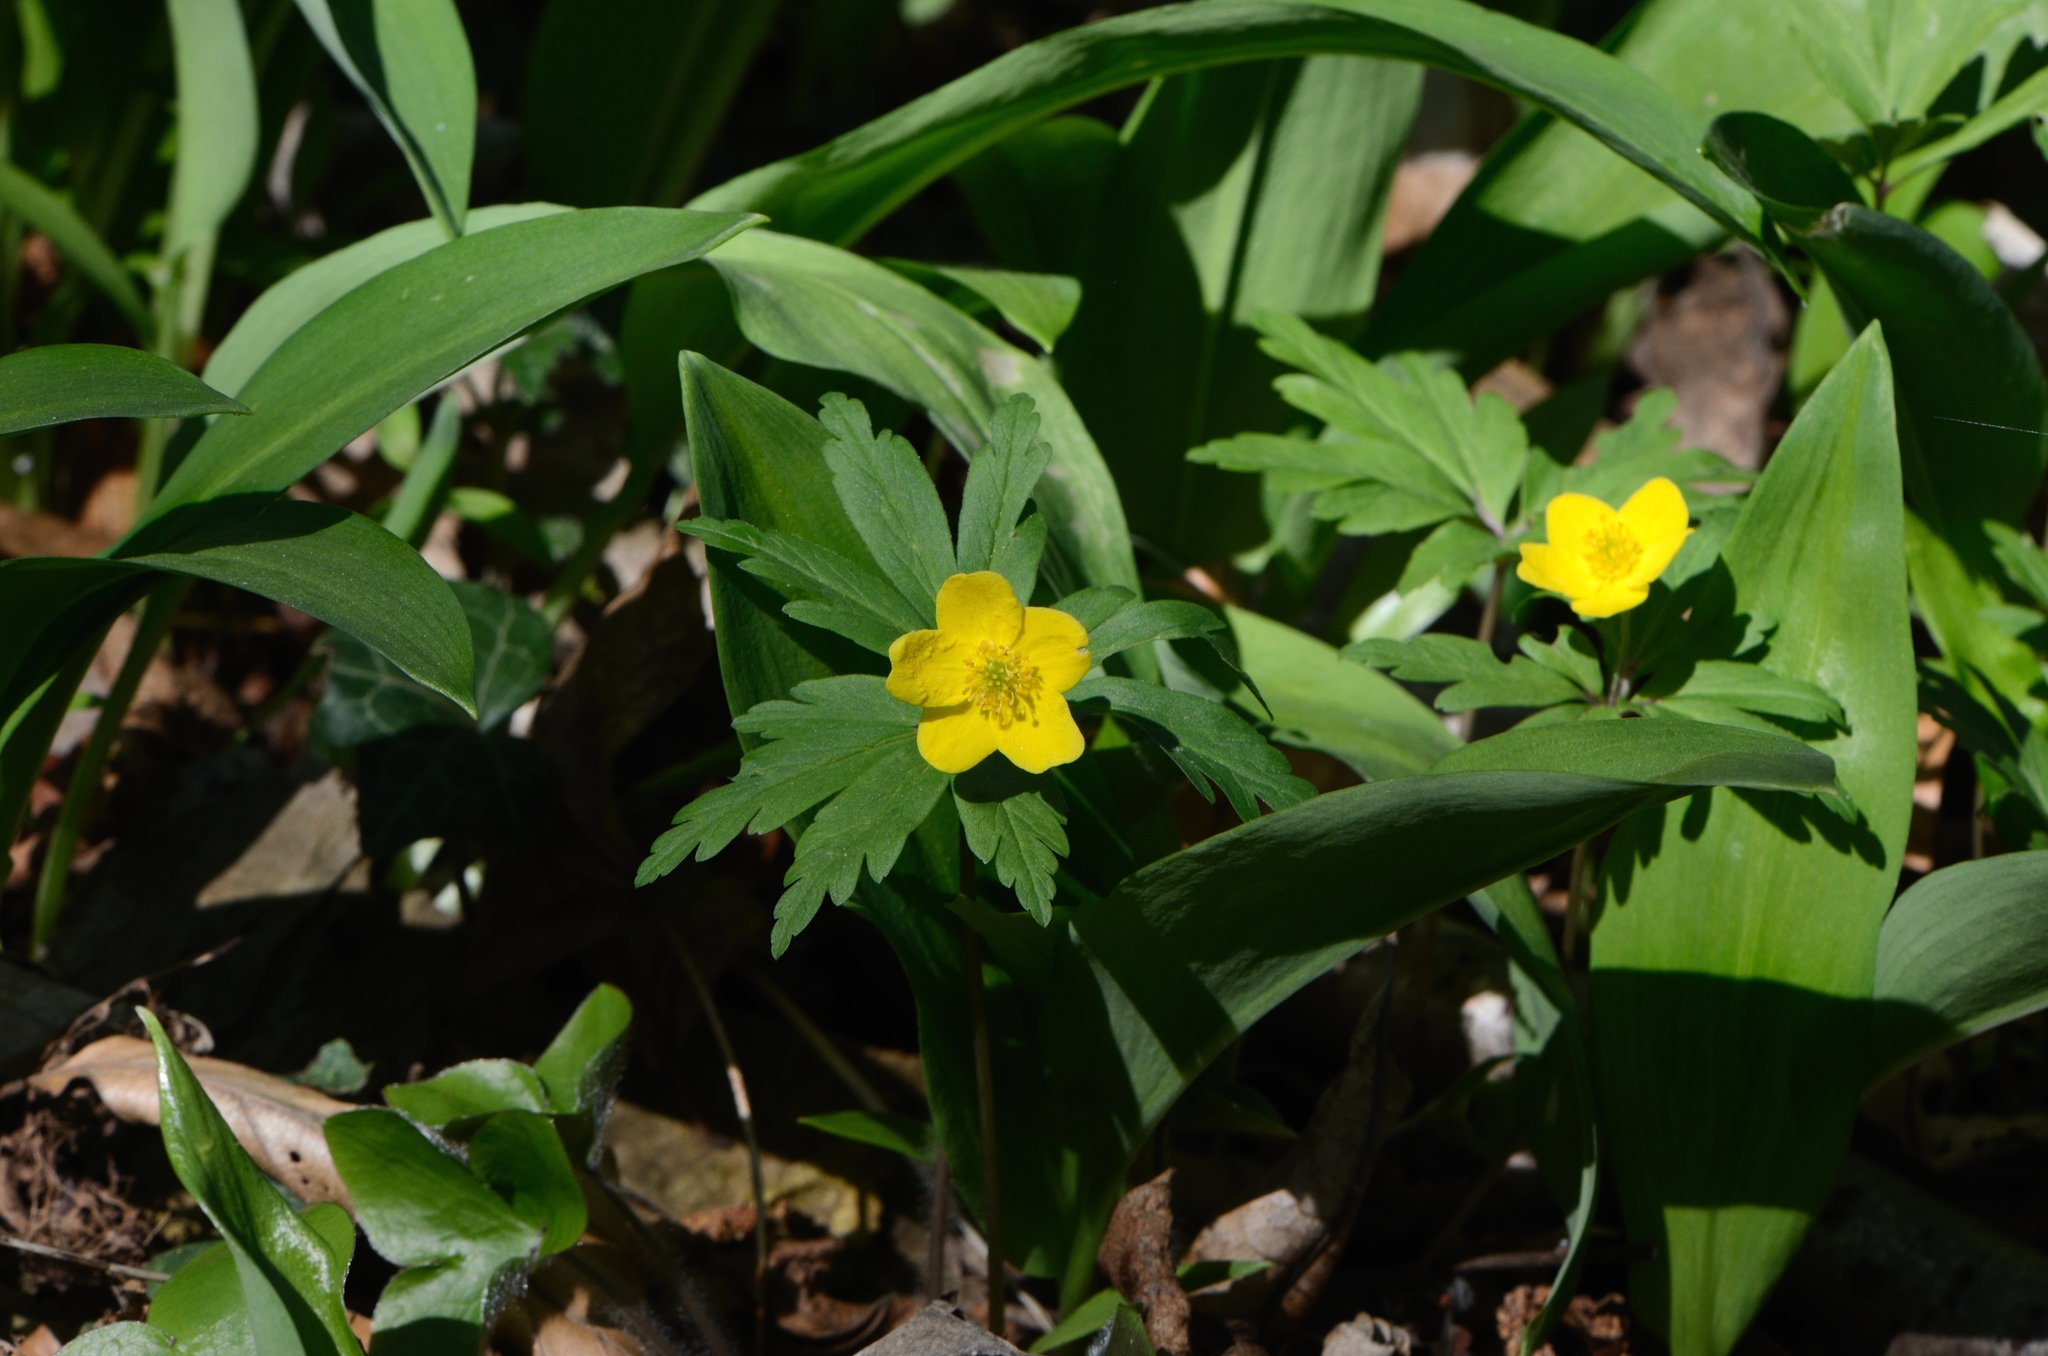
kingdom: Plantae
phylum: Tracheophyta
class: Magnoliopsida
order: Ranunculales
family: Ranunculaceae
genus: Anemone
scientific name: Anemone ranunculoides
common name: Yellow anemone
